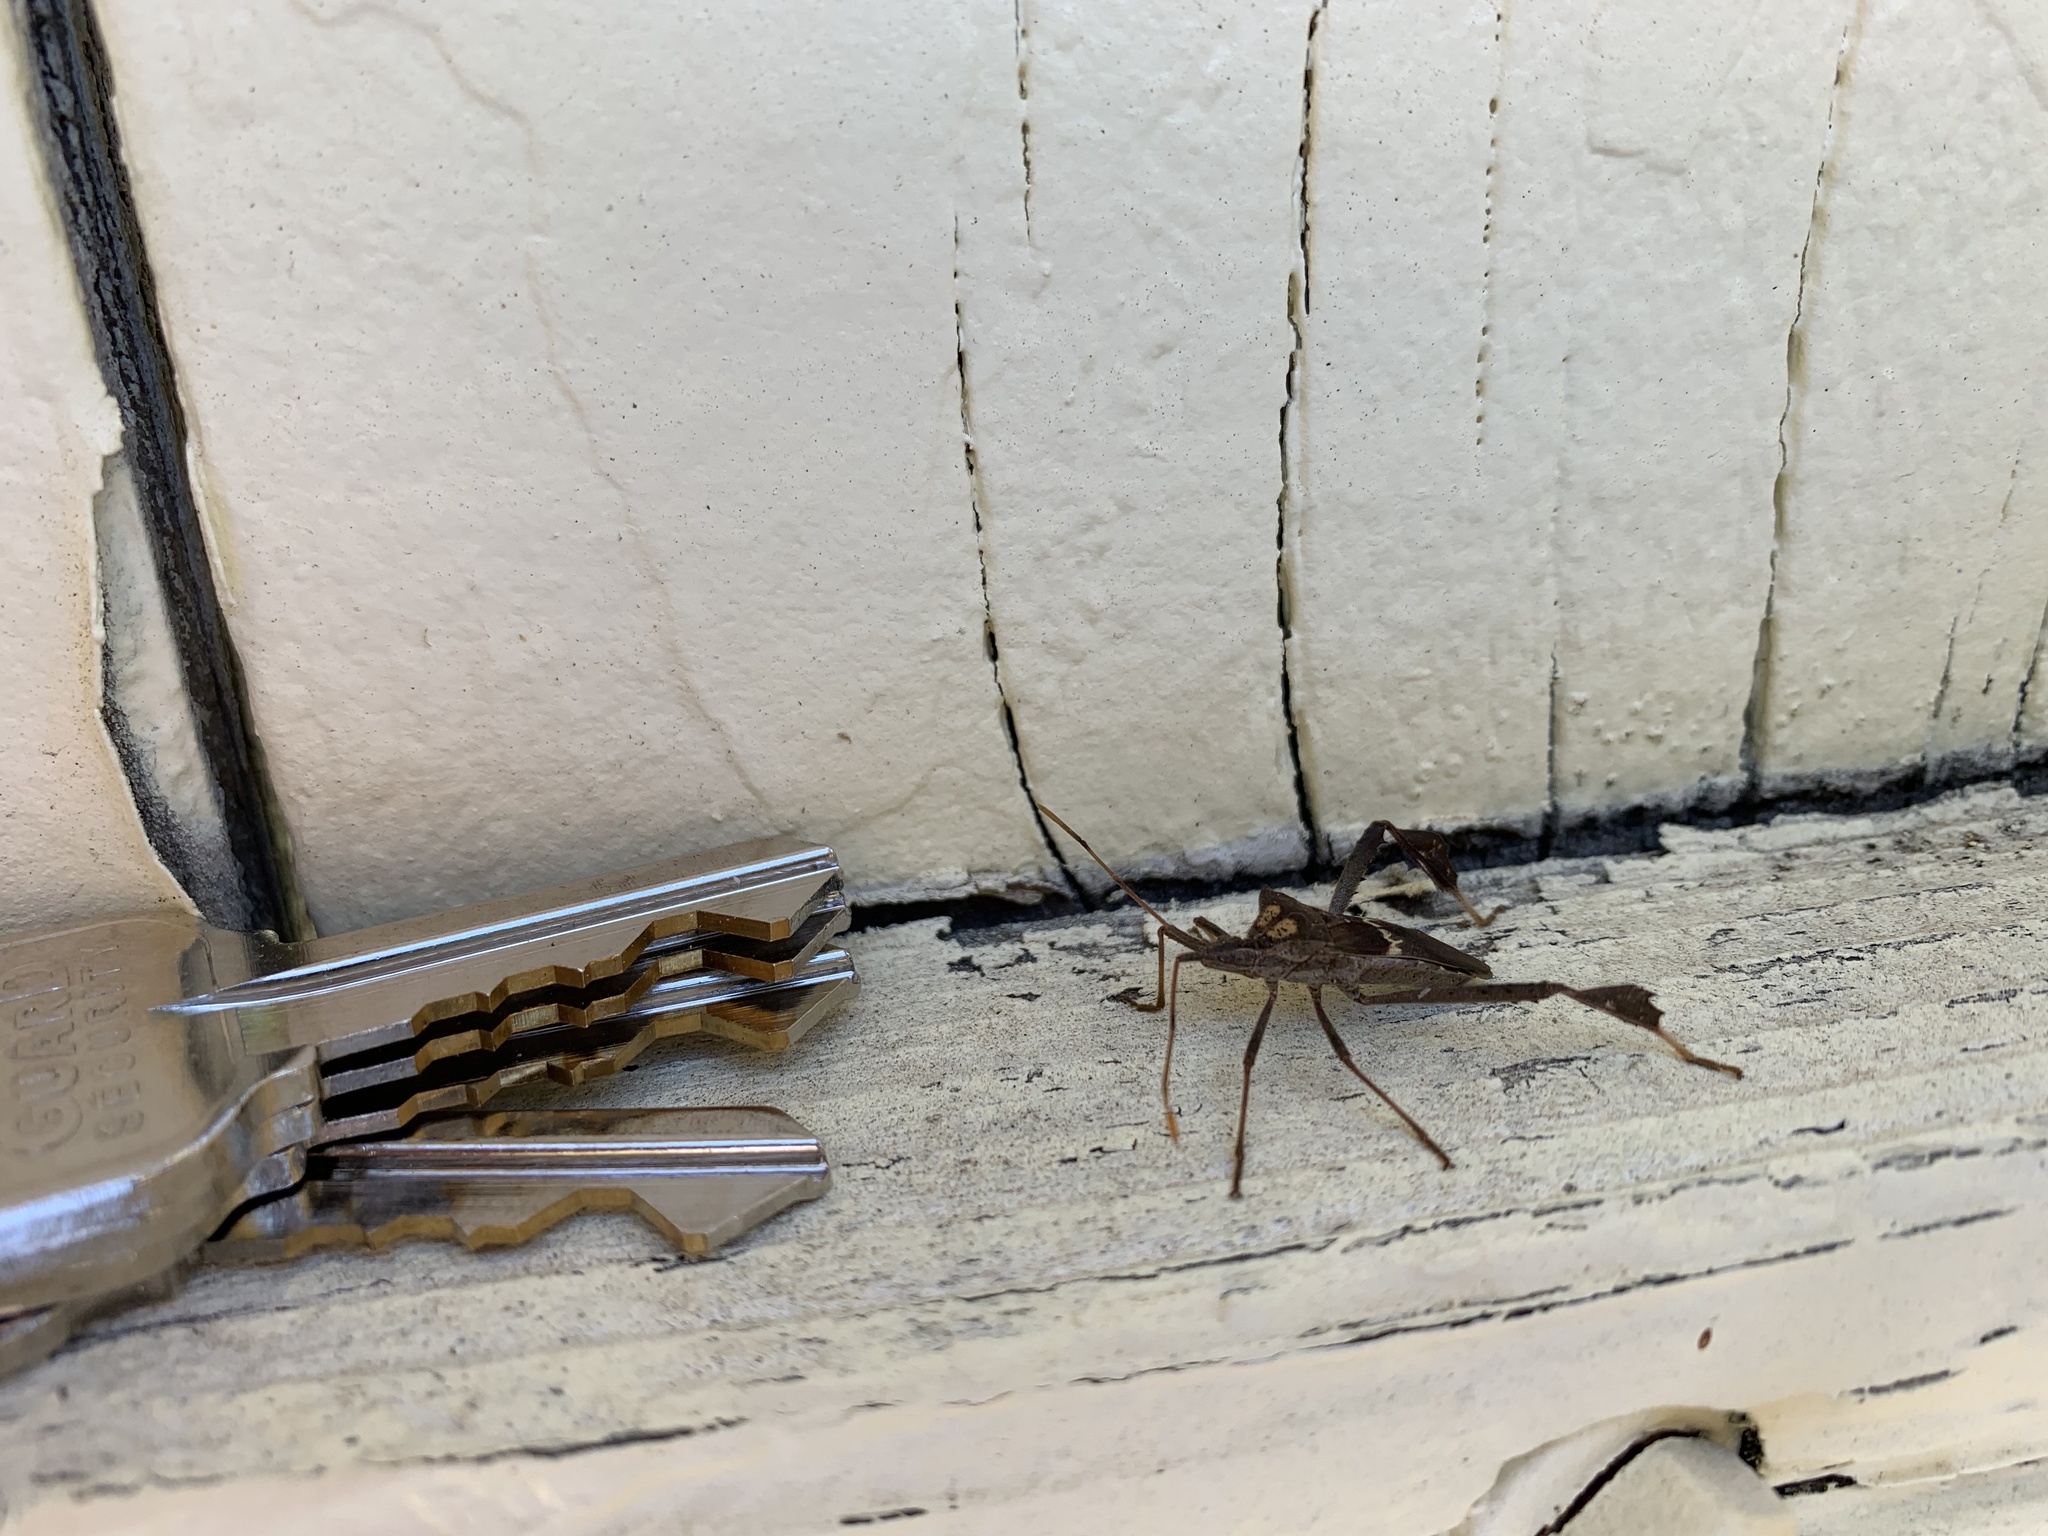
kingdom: Animalia
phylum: Arthropoda
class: Insecta
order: Hemiptera
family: Coreidae
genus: Leptoglossus
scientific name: Leptoglossus zonatus
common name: Large-legged bug
